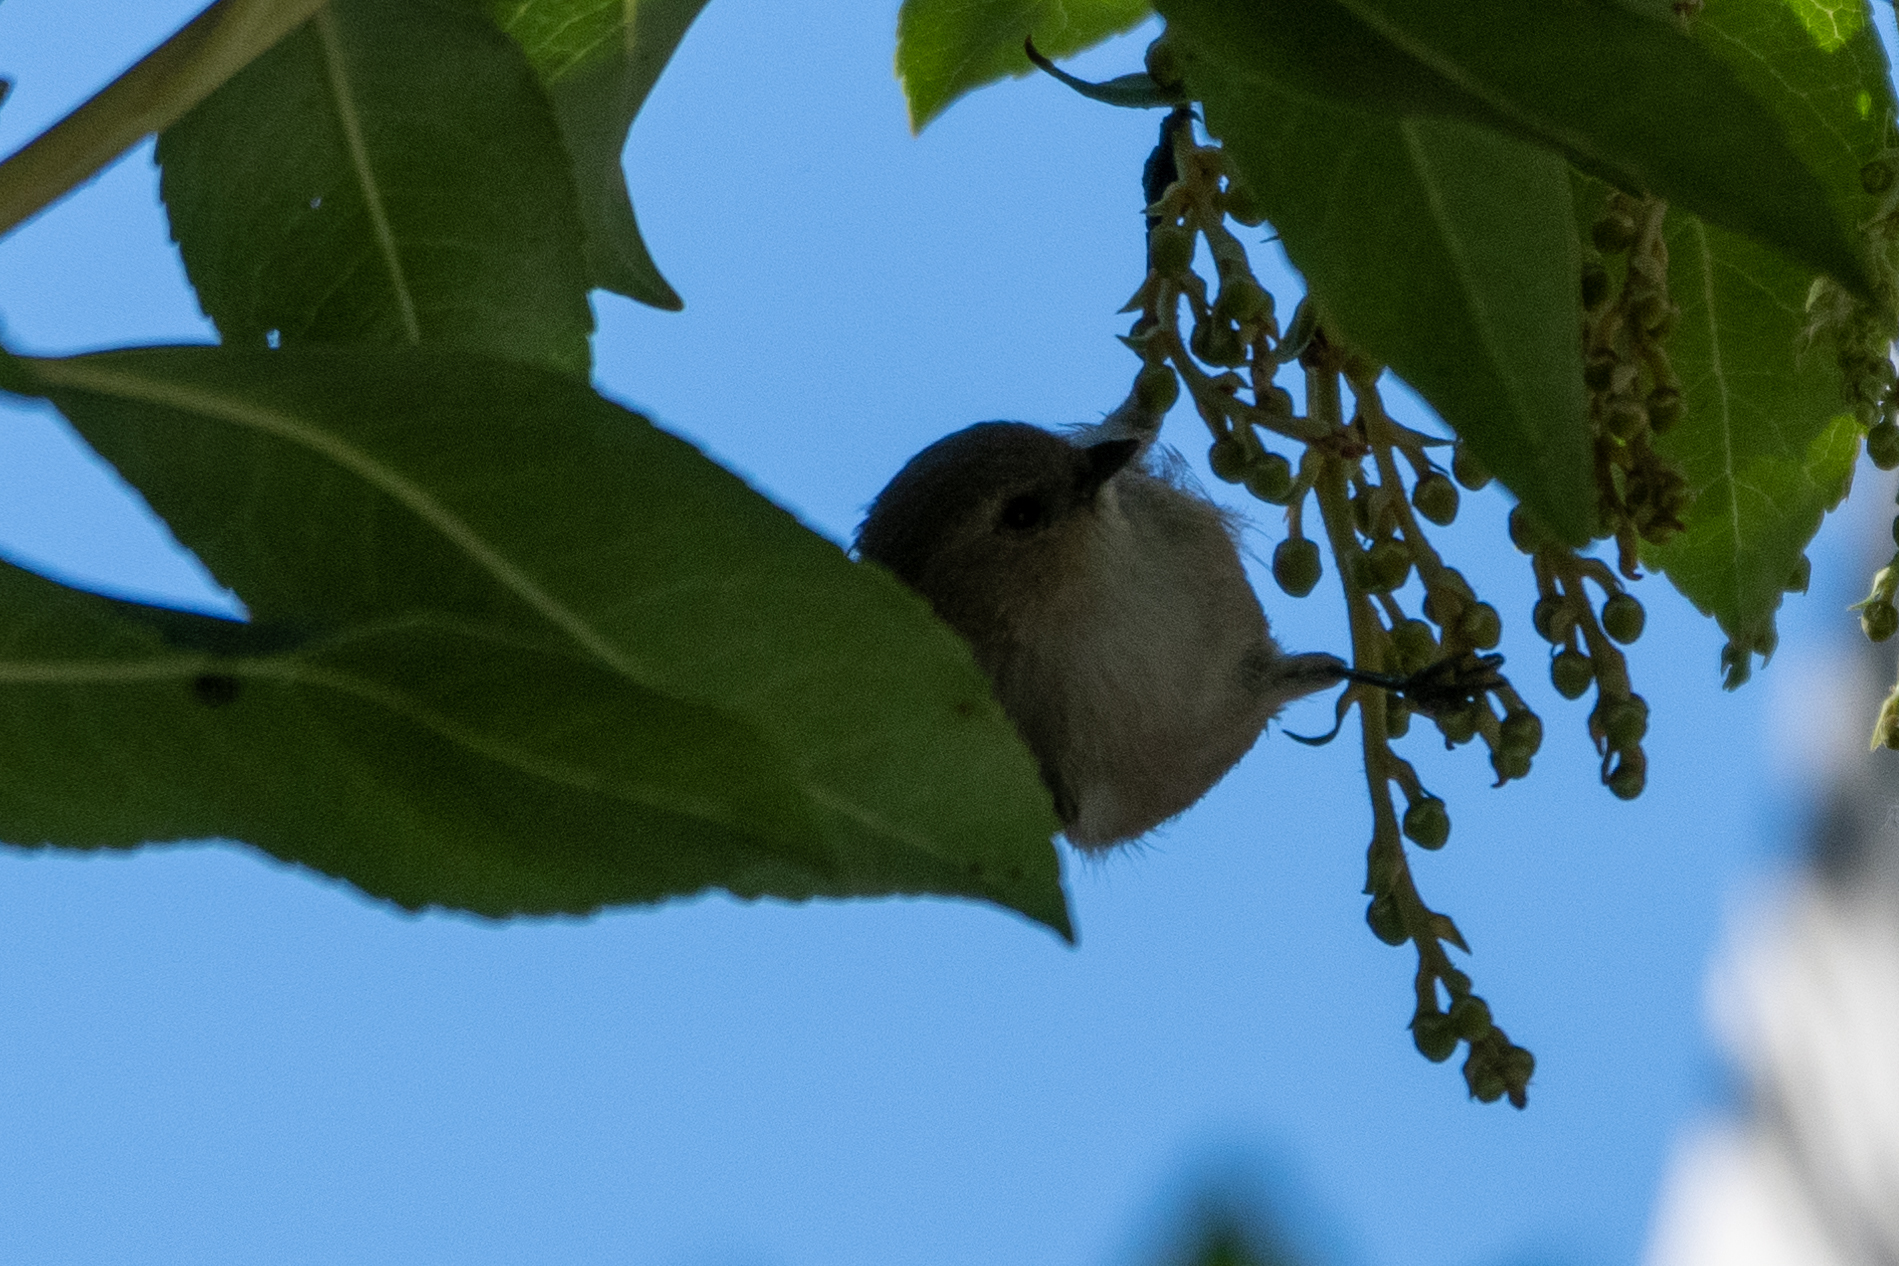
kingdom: Animalia
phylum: Chordata
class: Aves
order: Passeriformes
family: Aegithalidae
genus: Psaltriparus
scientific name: Psaltriparus minimus
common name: American bushtit
